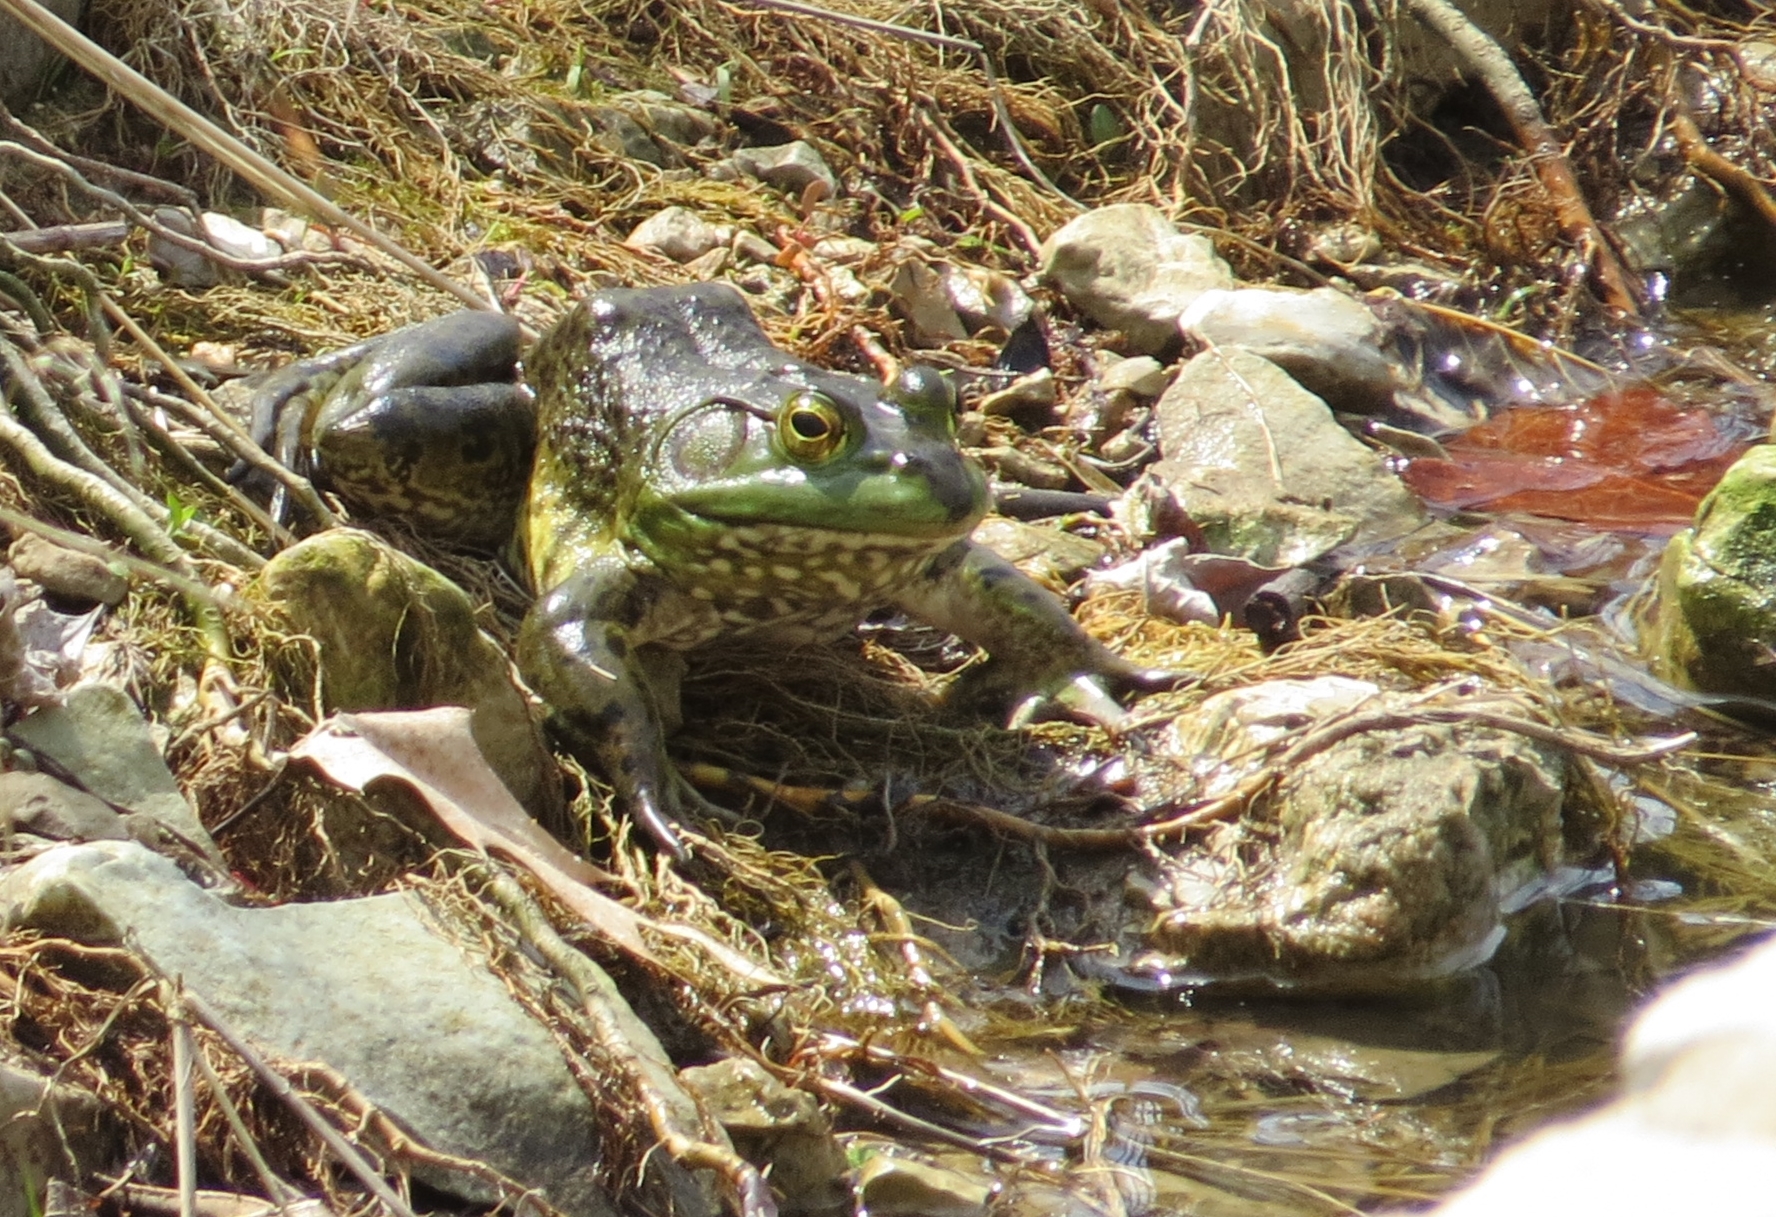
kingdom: Animalia
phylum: Chordata
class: Amphibia
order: Anura
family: Ranidae
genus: Lithobates
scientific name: Lithobates catesbeianus
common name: American bullfrog
